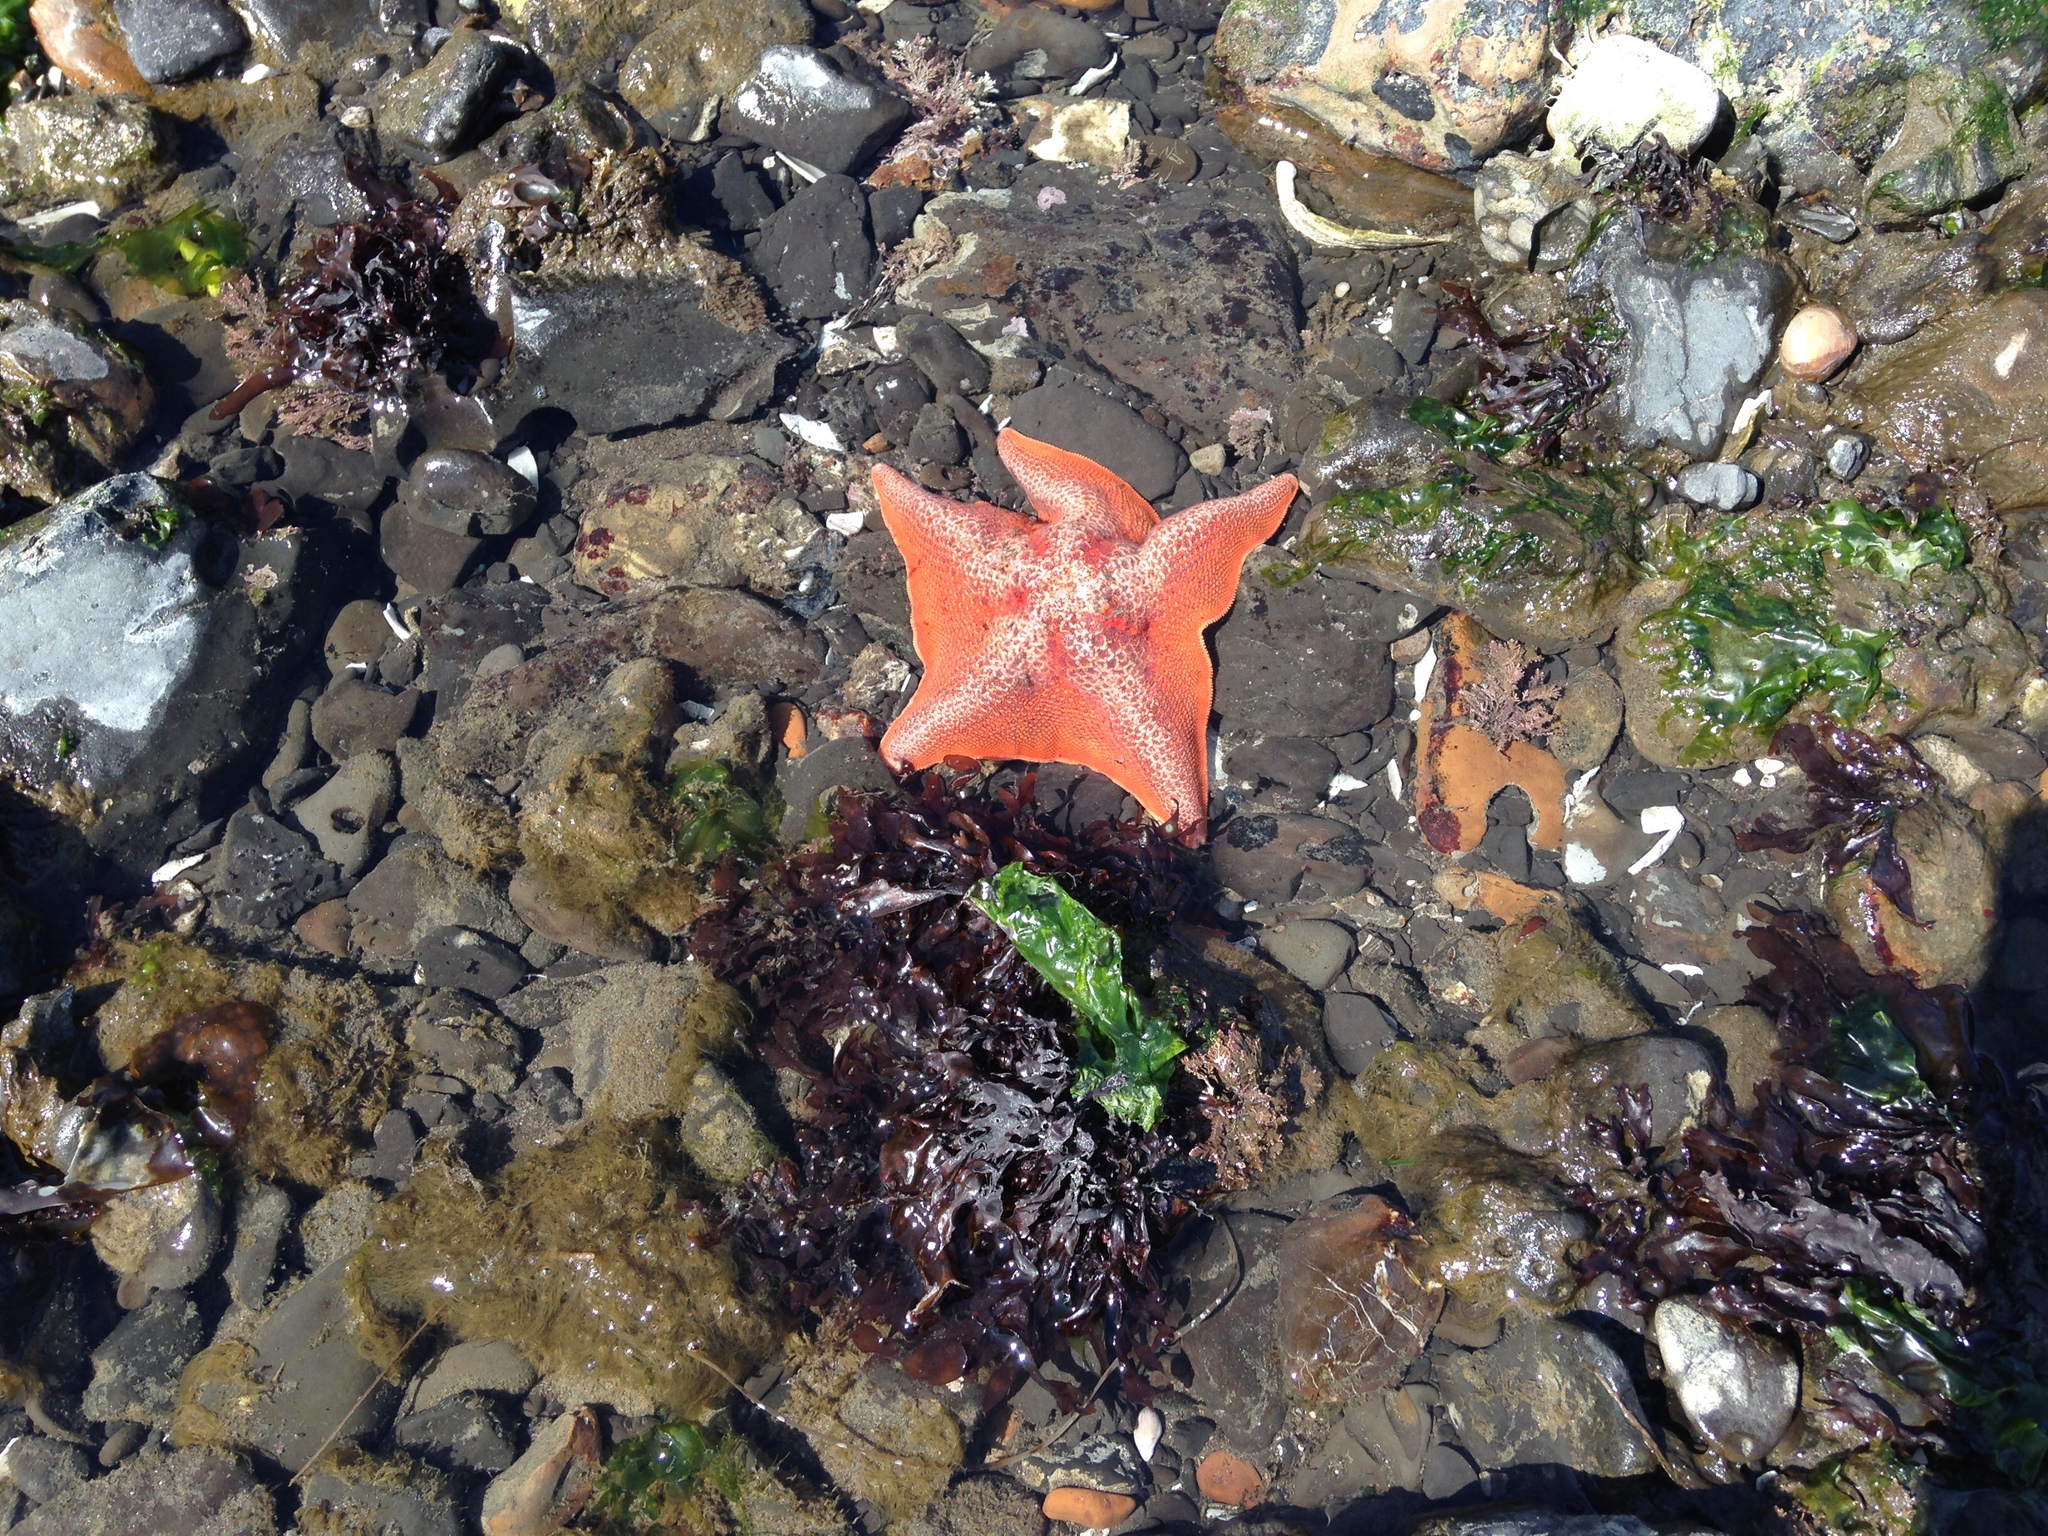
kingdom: Animalia
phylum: Echinodermata
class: Asteroidea
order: Valvatida
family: Asterinidae
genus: Patiria
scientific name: Patiria miniata
